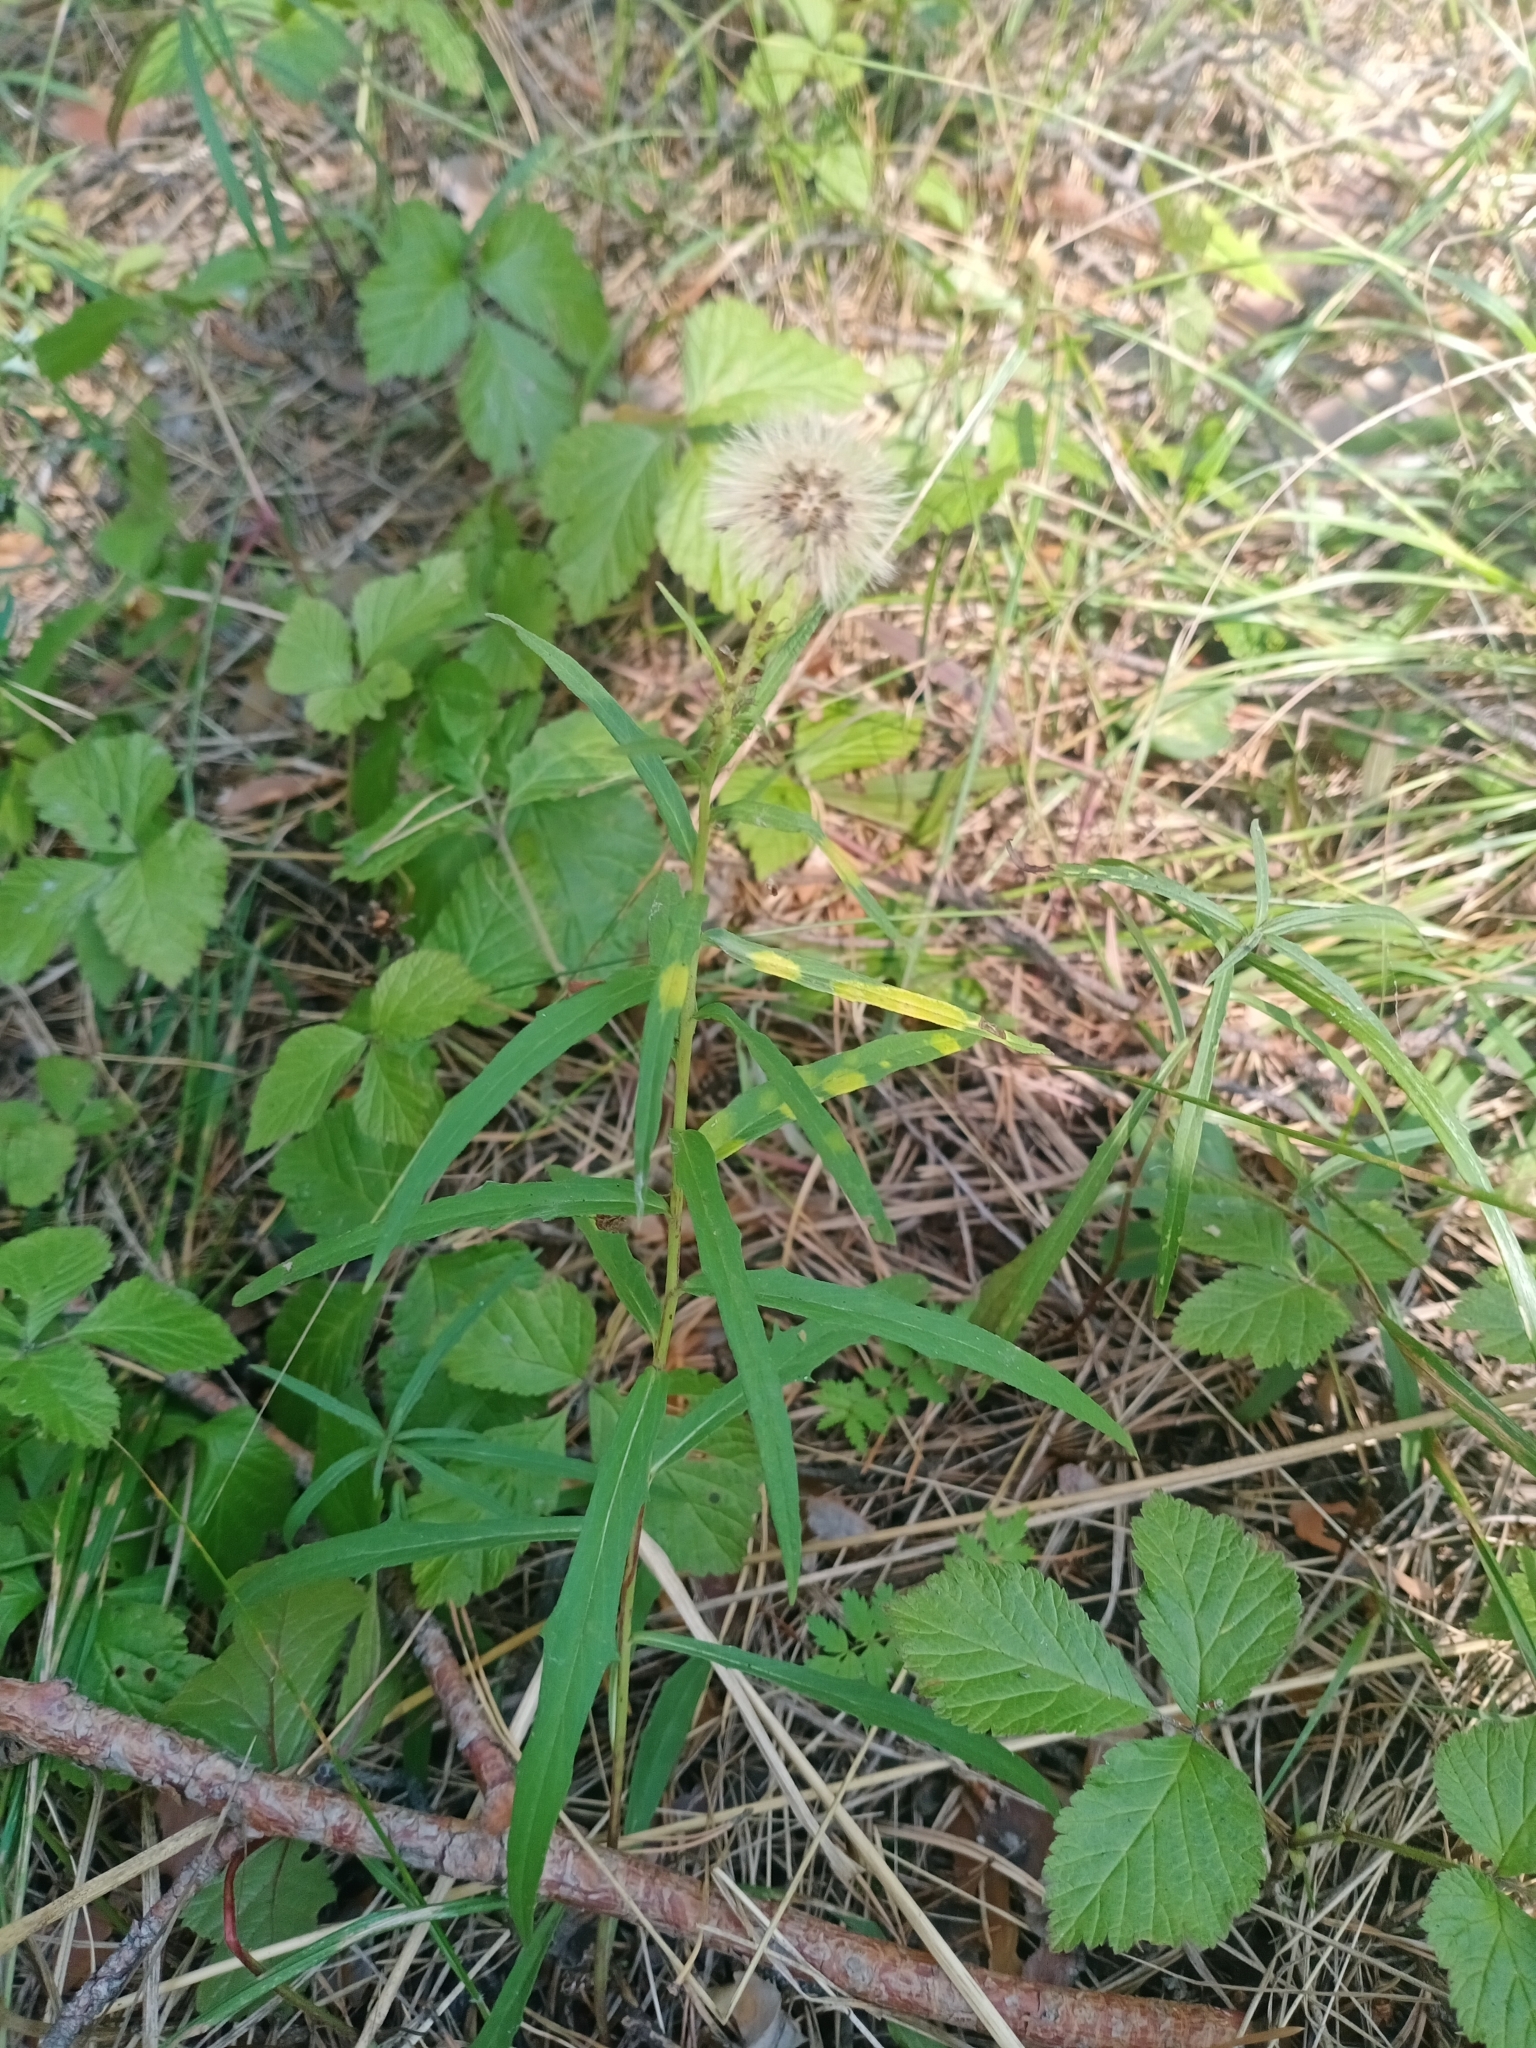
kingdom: Plantae
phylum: Tracheophyta
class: Magnoliopsida
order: Asterales
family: Asteraceae
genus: Hieracium
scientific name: Hieracium umbellatum
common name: Northern hawkweed
